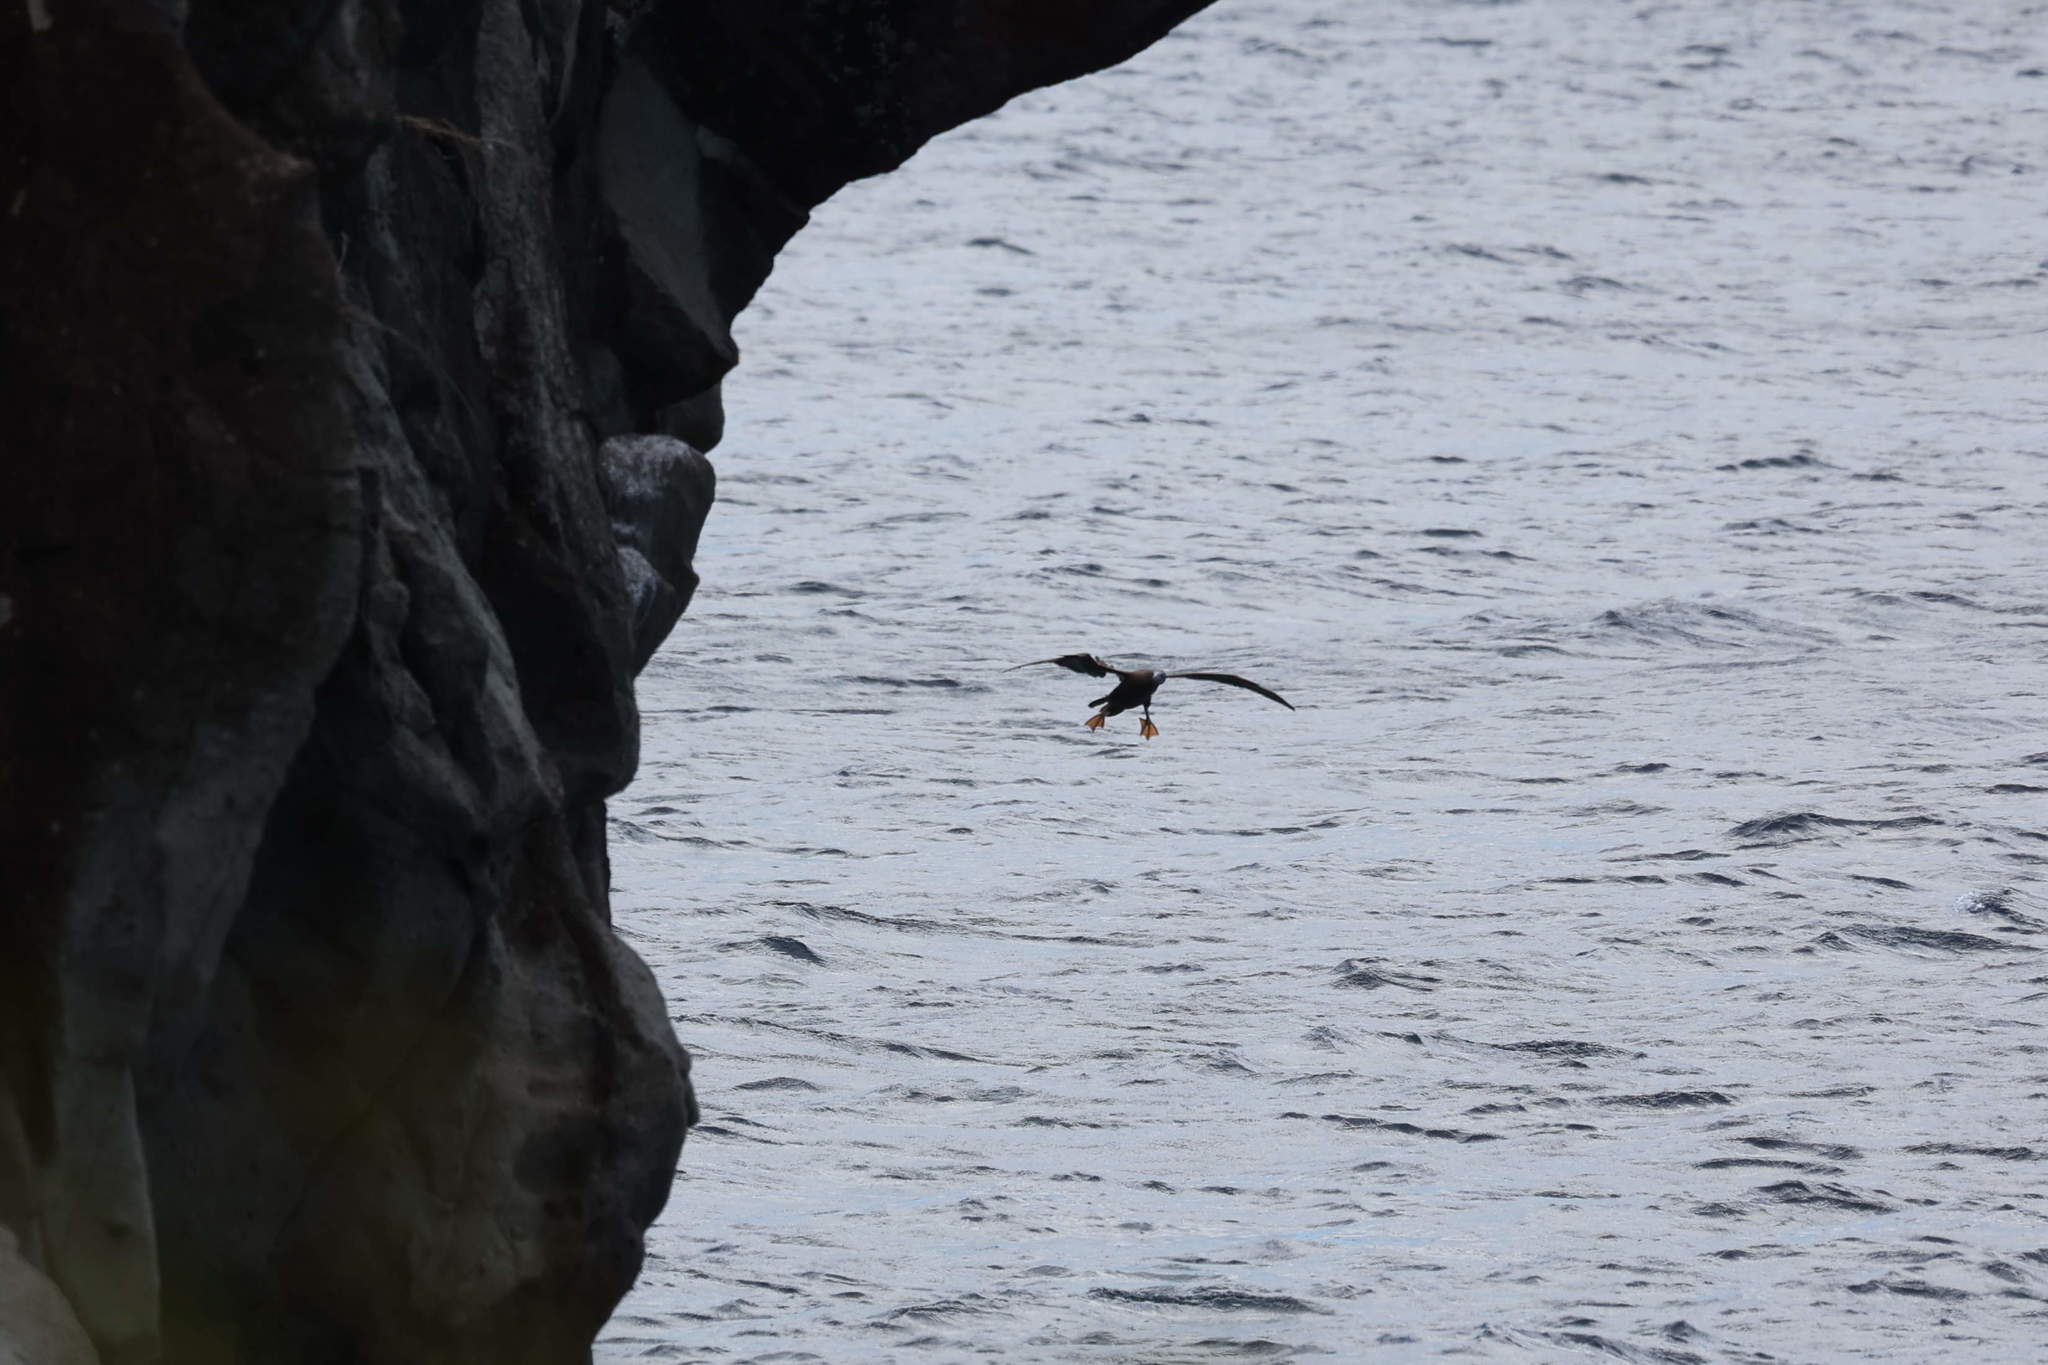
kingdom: Animalia
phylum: Chordata
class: Aves
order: Suliformes
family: Sulidae
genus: Sula
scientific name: Sula leucogaster
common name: Brown booby
